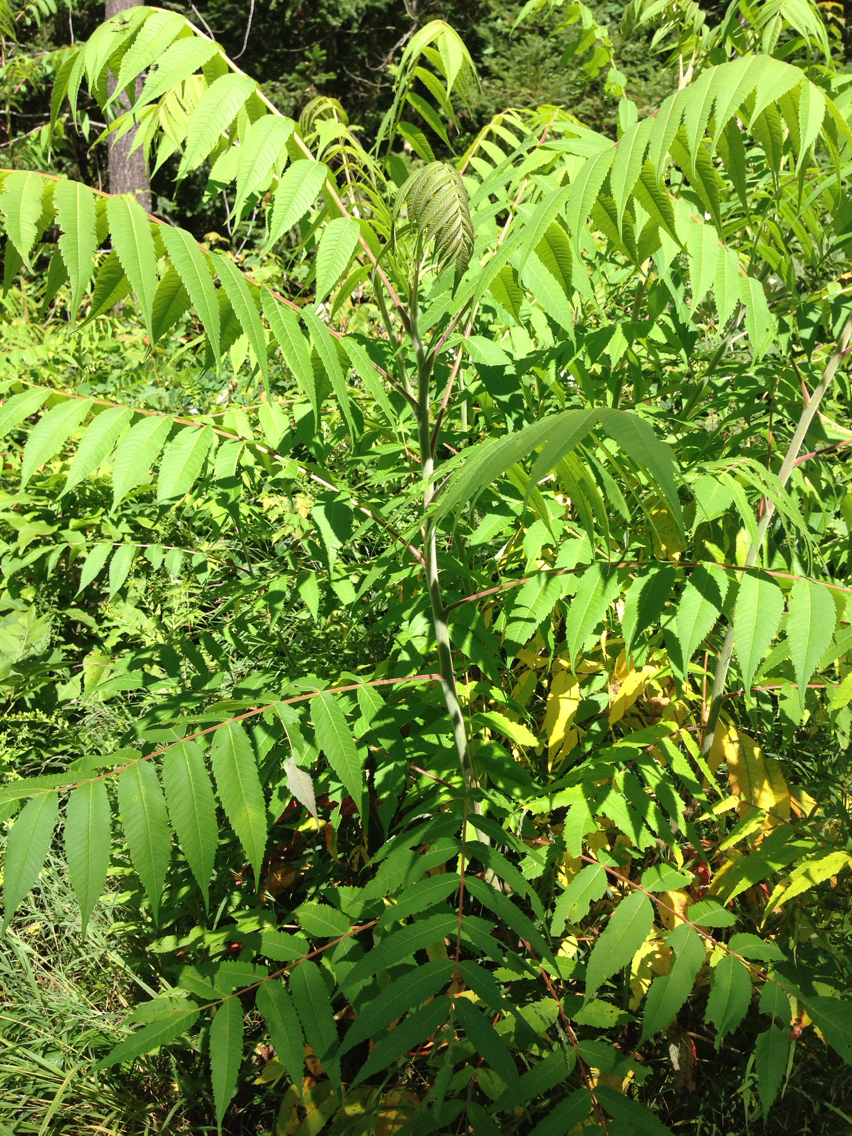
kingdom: Plantae
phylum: Tracheophyta
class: Magnoliopsida
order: Sapindales
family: Anacardiaceae
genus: Rhus
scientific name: Rhus typhina
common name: Staghorn sumac
